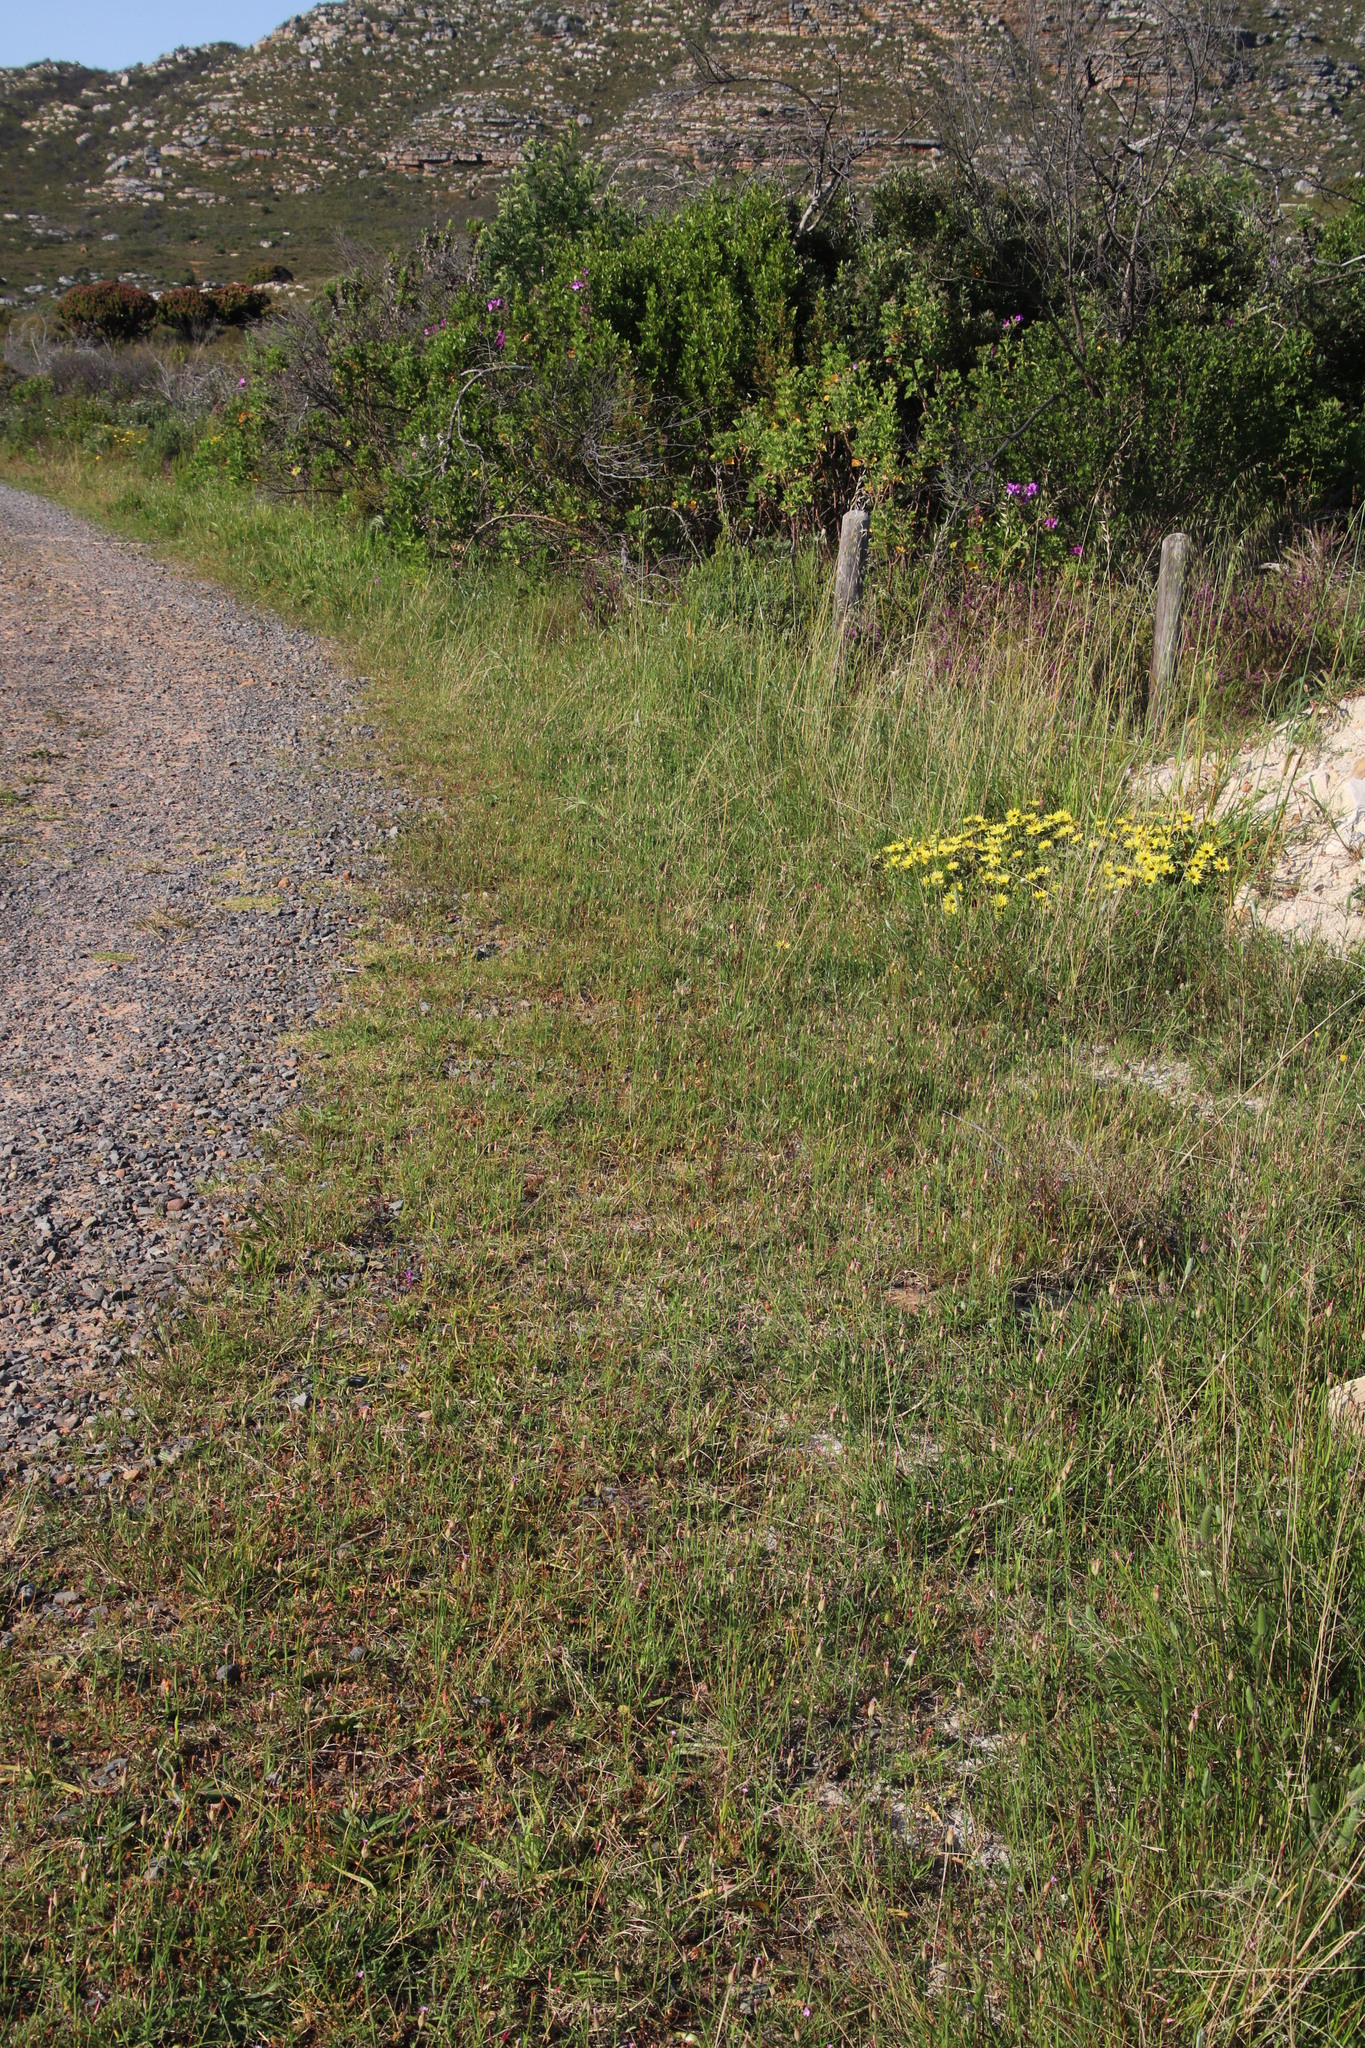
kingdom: Plantae
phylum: Tracheophyta
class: Magnoliopsida
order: Caryophyllales
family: Caryophyllaceae
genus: Petrorhagia
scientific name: Petrorhagia prolifera
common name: Proliferous pink
